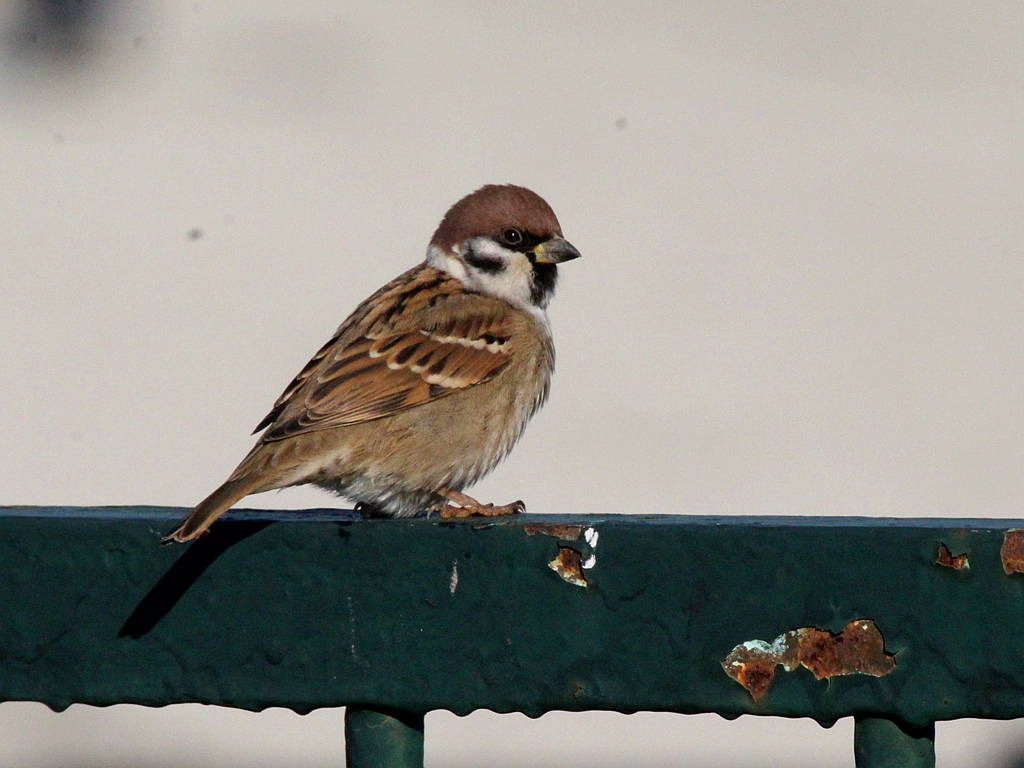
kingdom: Animalia
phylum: Chordata
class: Aves
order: Passeriformes
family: Passeridae
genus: Passer
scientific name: Passer montanus
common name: Eurasian tree sparrow
